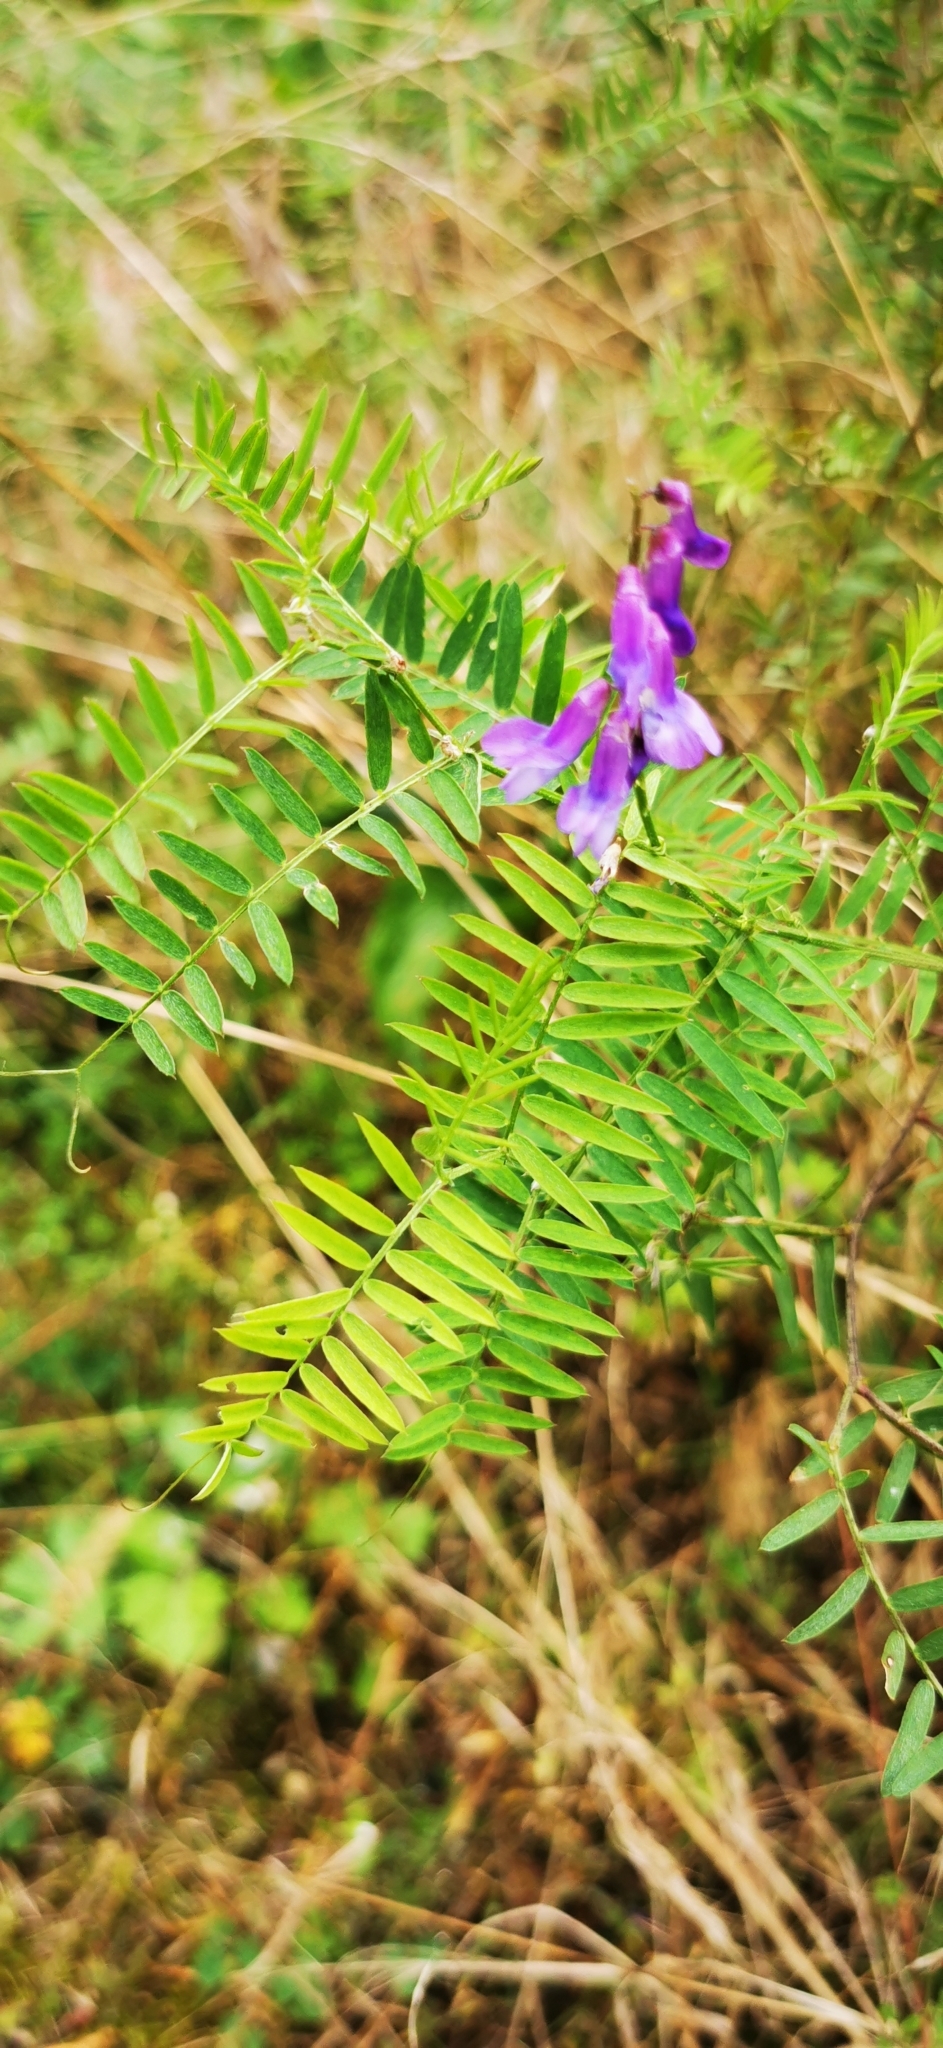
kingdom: Plantae
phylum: Tracheophyta
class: Magnoliopsida
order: Fabales
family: Fabaceae
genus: Vicia
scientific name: Vicia cracca
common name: Bird vetch
